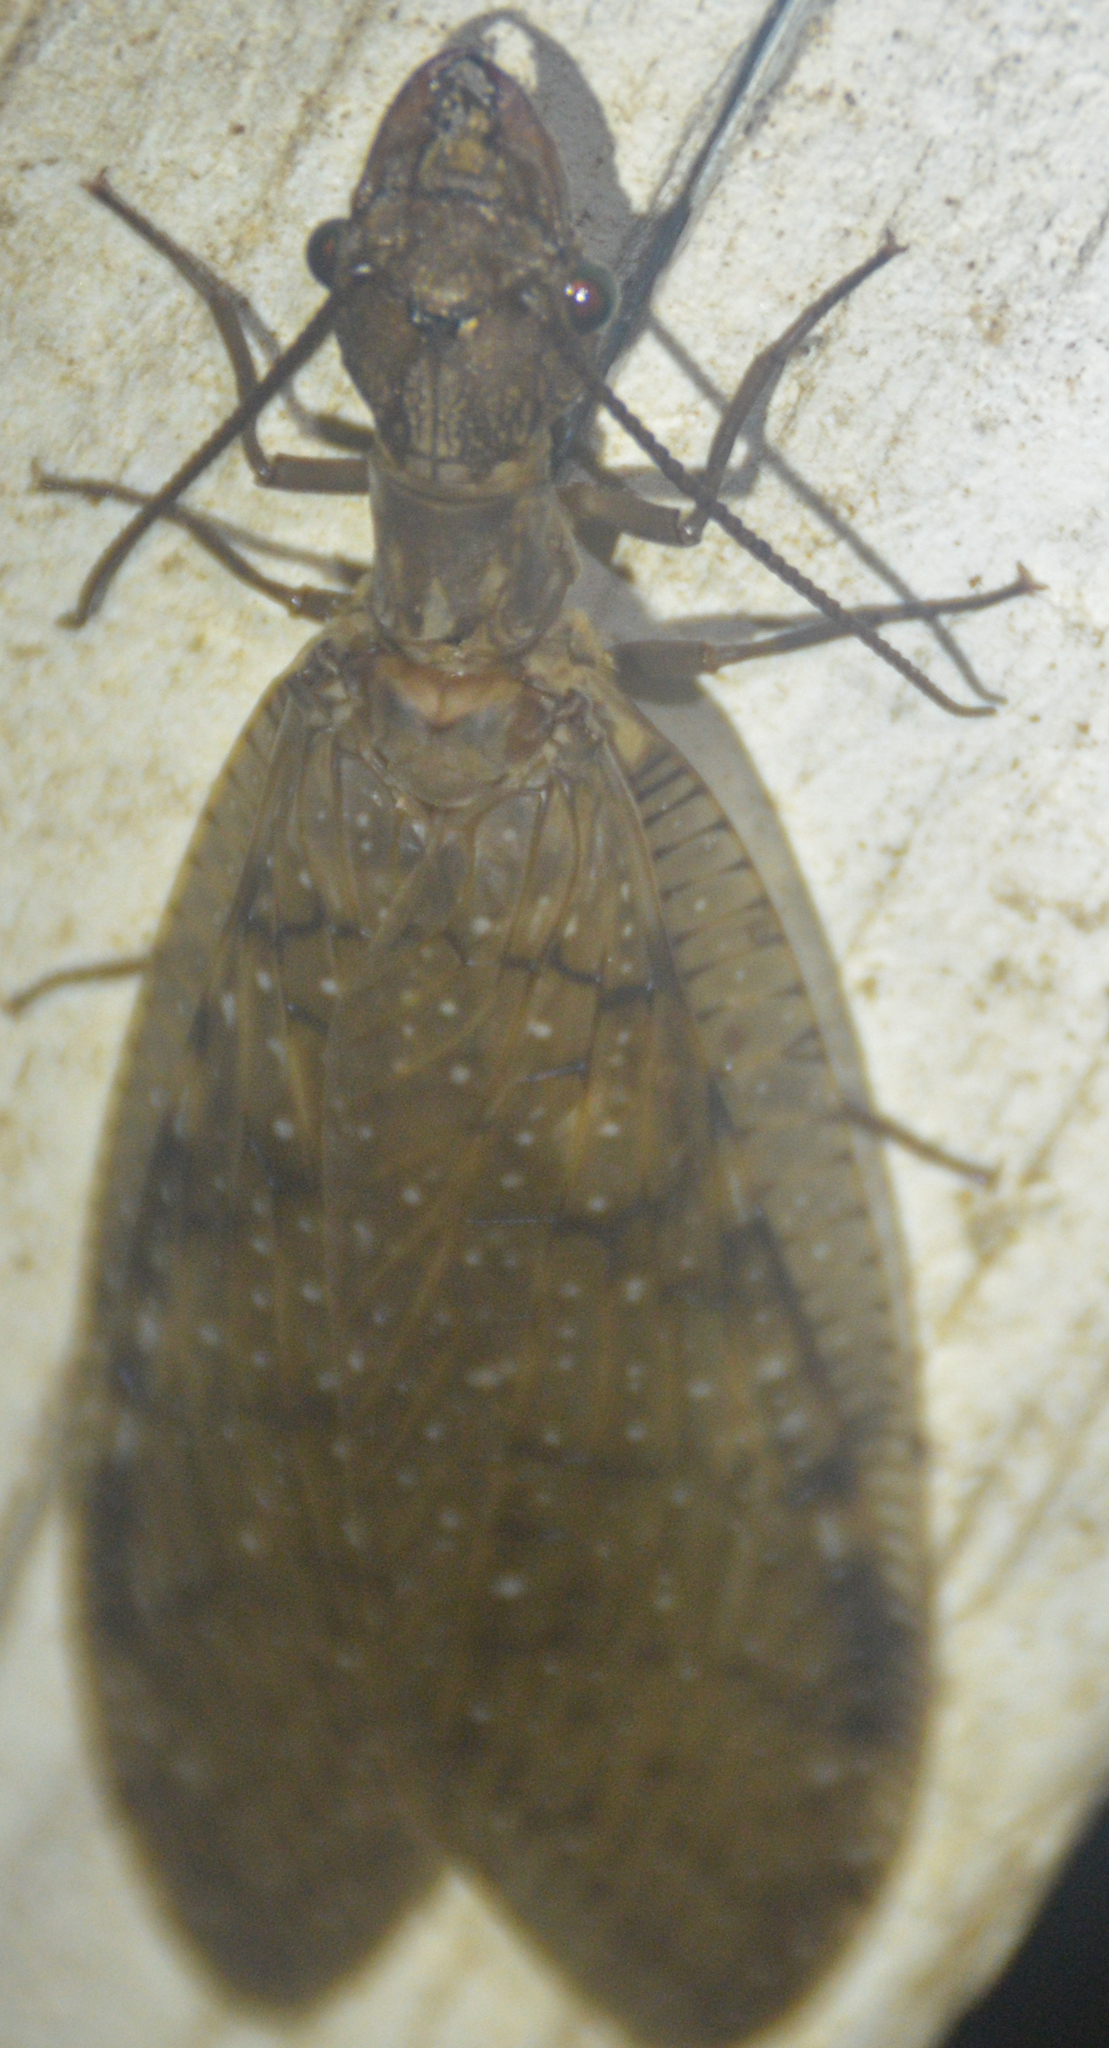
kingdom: Animalia
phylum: Arthropoda
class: Insecta
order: Megaloptera
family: Corydalidae
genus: Corydalus
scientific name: Corydalus cornutus
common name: Dobsonfly
